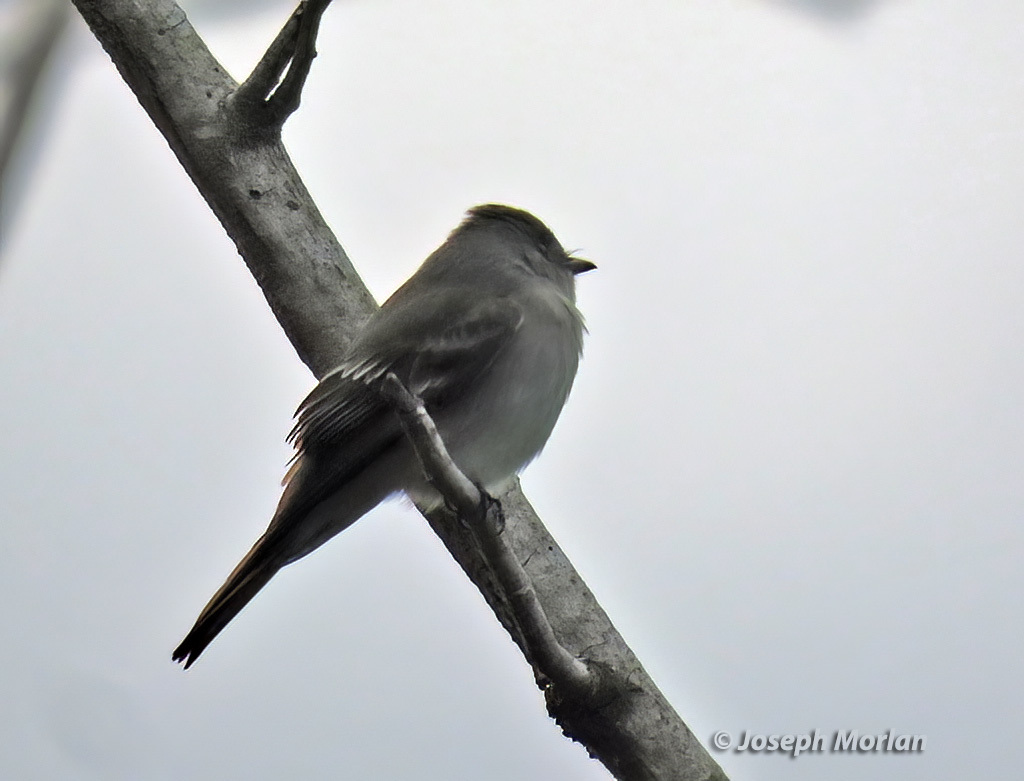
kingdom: Animalia
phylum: Chordata
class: Aves
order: Passeriformes
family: Tyrannidae
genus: Contopus
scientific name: Contopus virens
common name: Eastern wood-pewee
